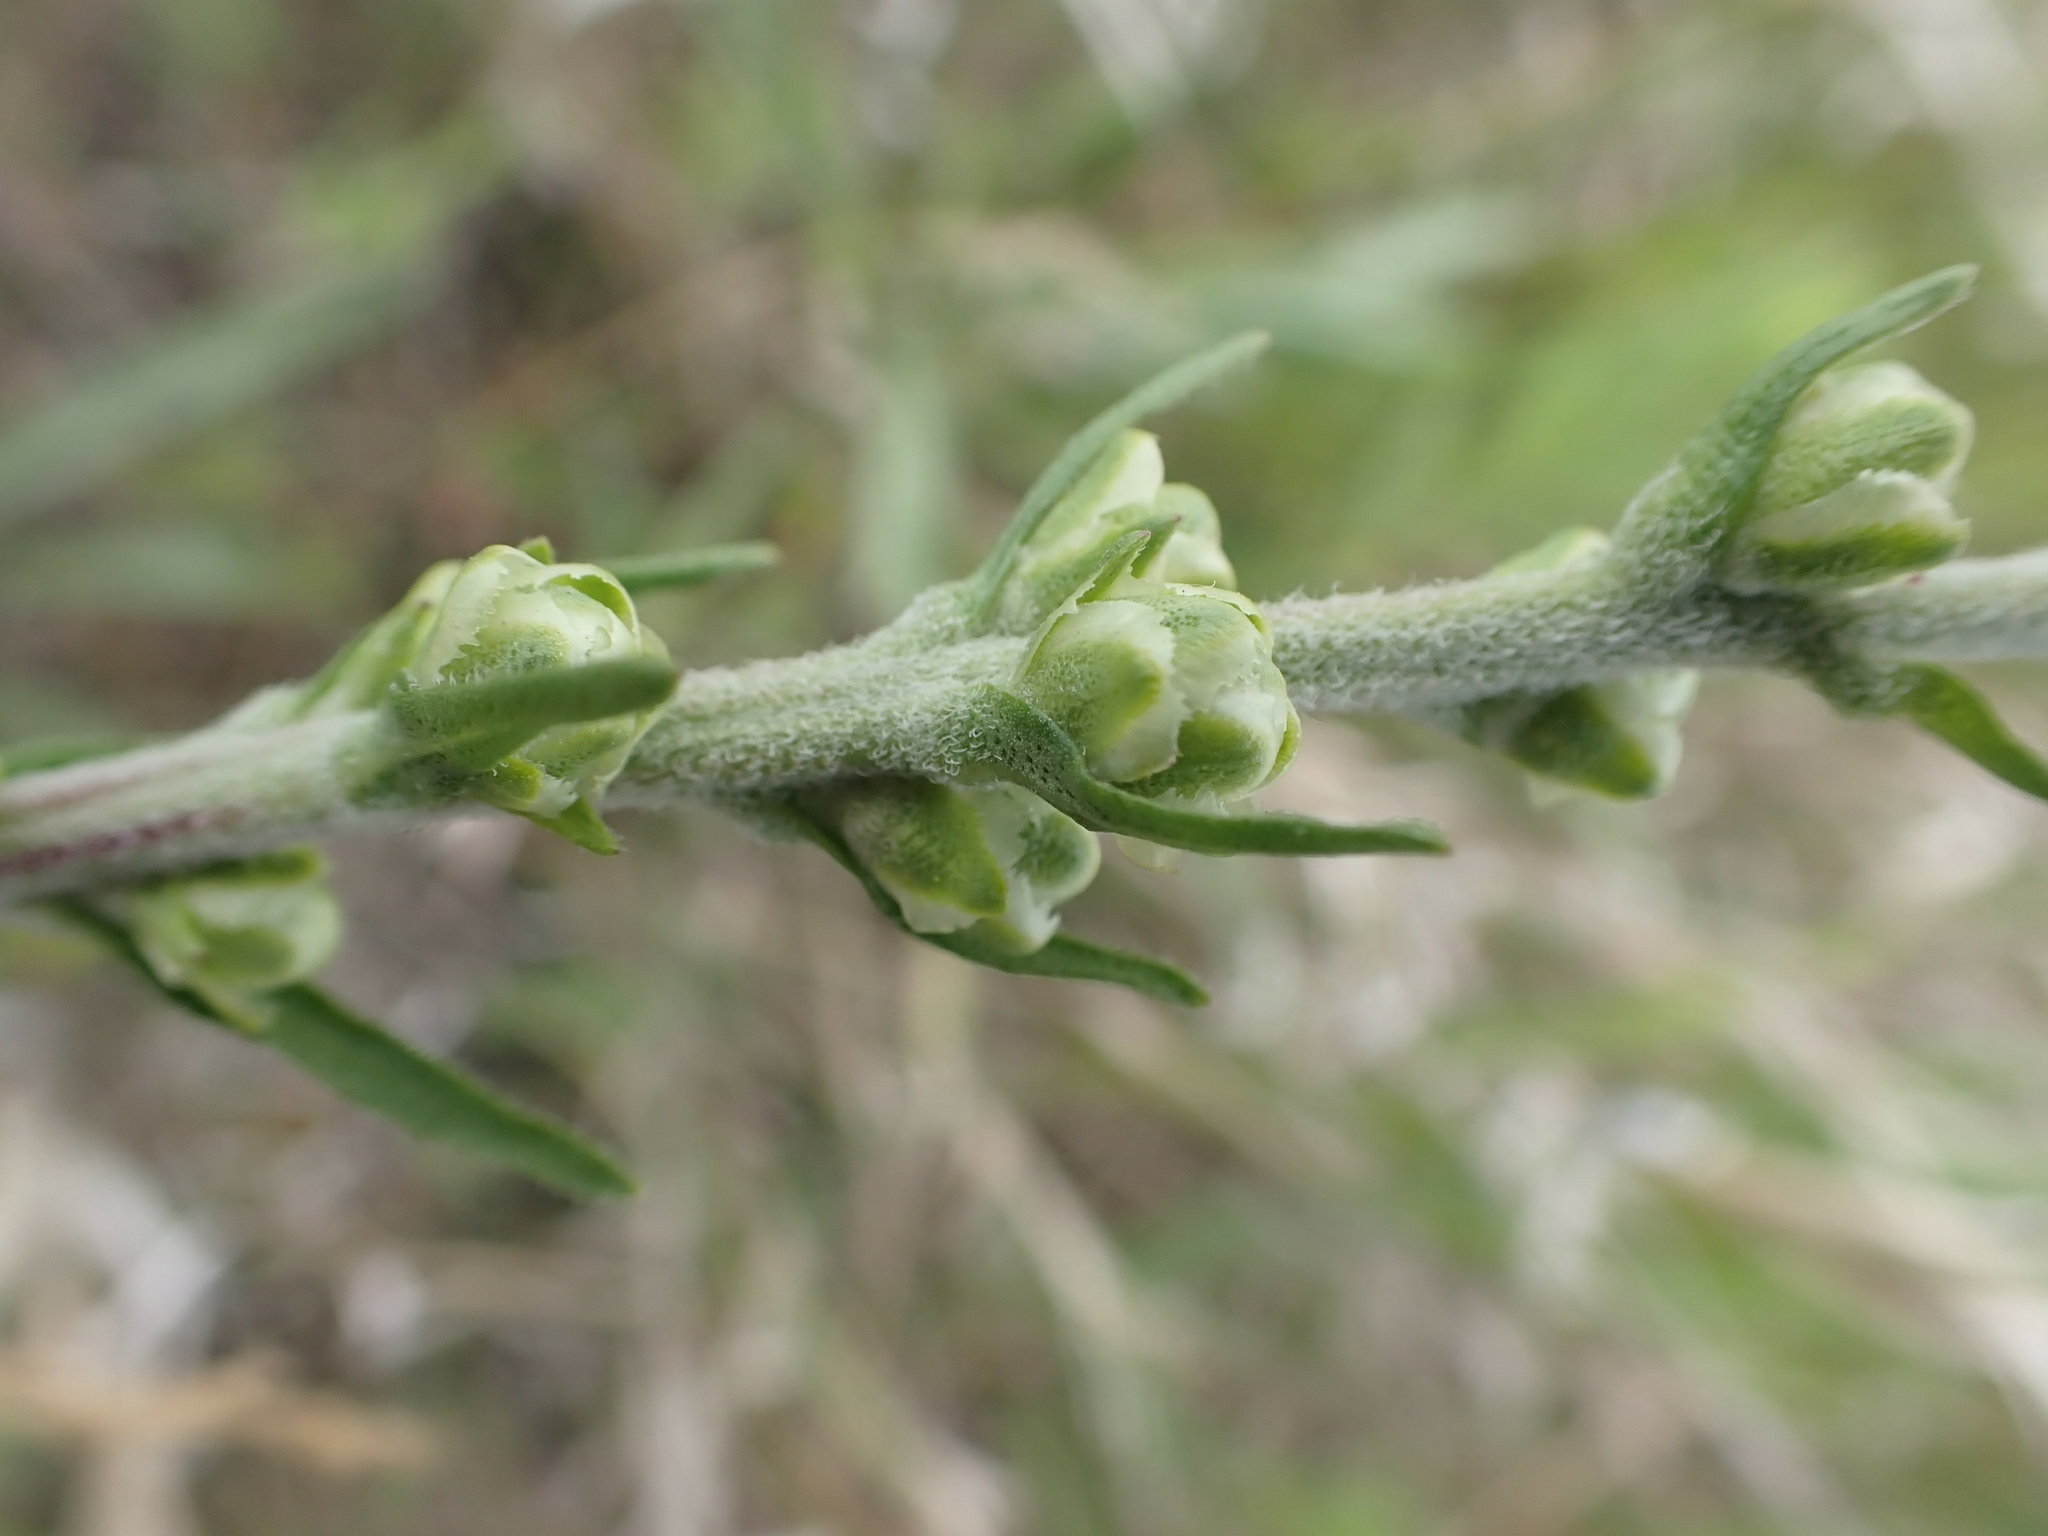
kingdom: Plantae
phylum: Tracheophyta
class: Magnoliopsida
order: Asterales
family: Asteraceae
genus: Liatris
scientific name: Liatris ligulistylis
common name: Northern plains gayfeather
